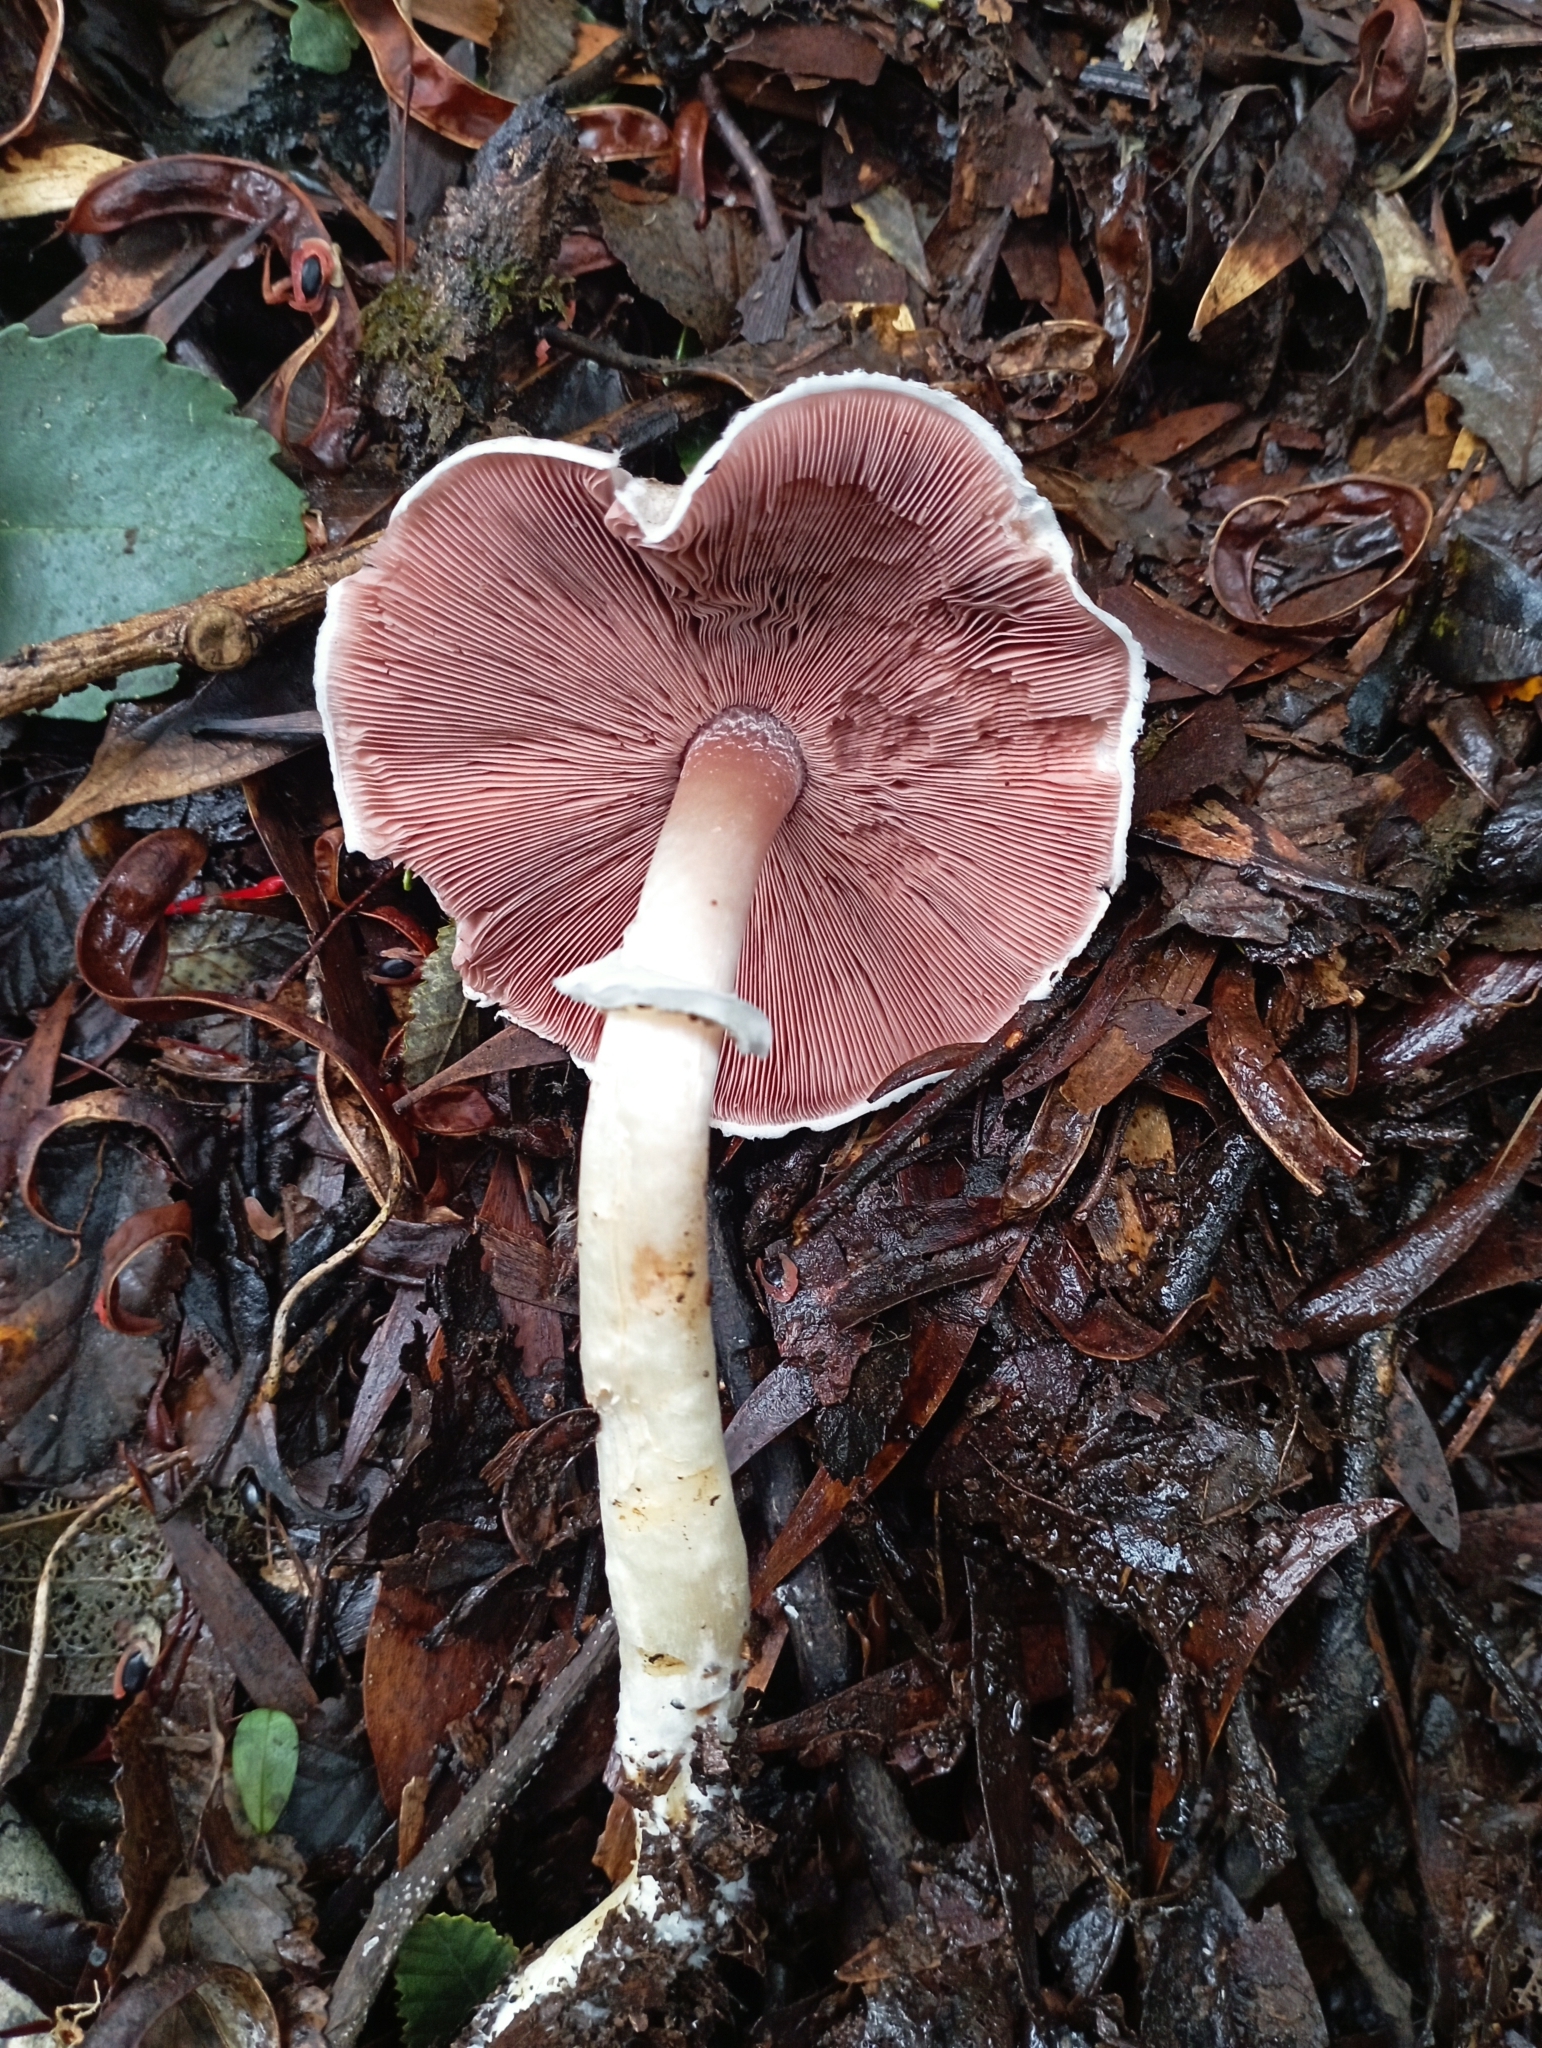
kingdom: Fungi
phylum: Basidiomycota
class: Agaricomycetes
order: Agaricales
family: Agaricaceae
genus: Agaricus
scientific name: Agaricus moelleri
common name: Inky mushroom
